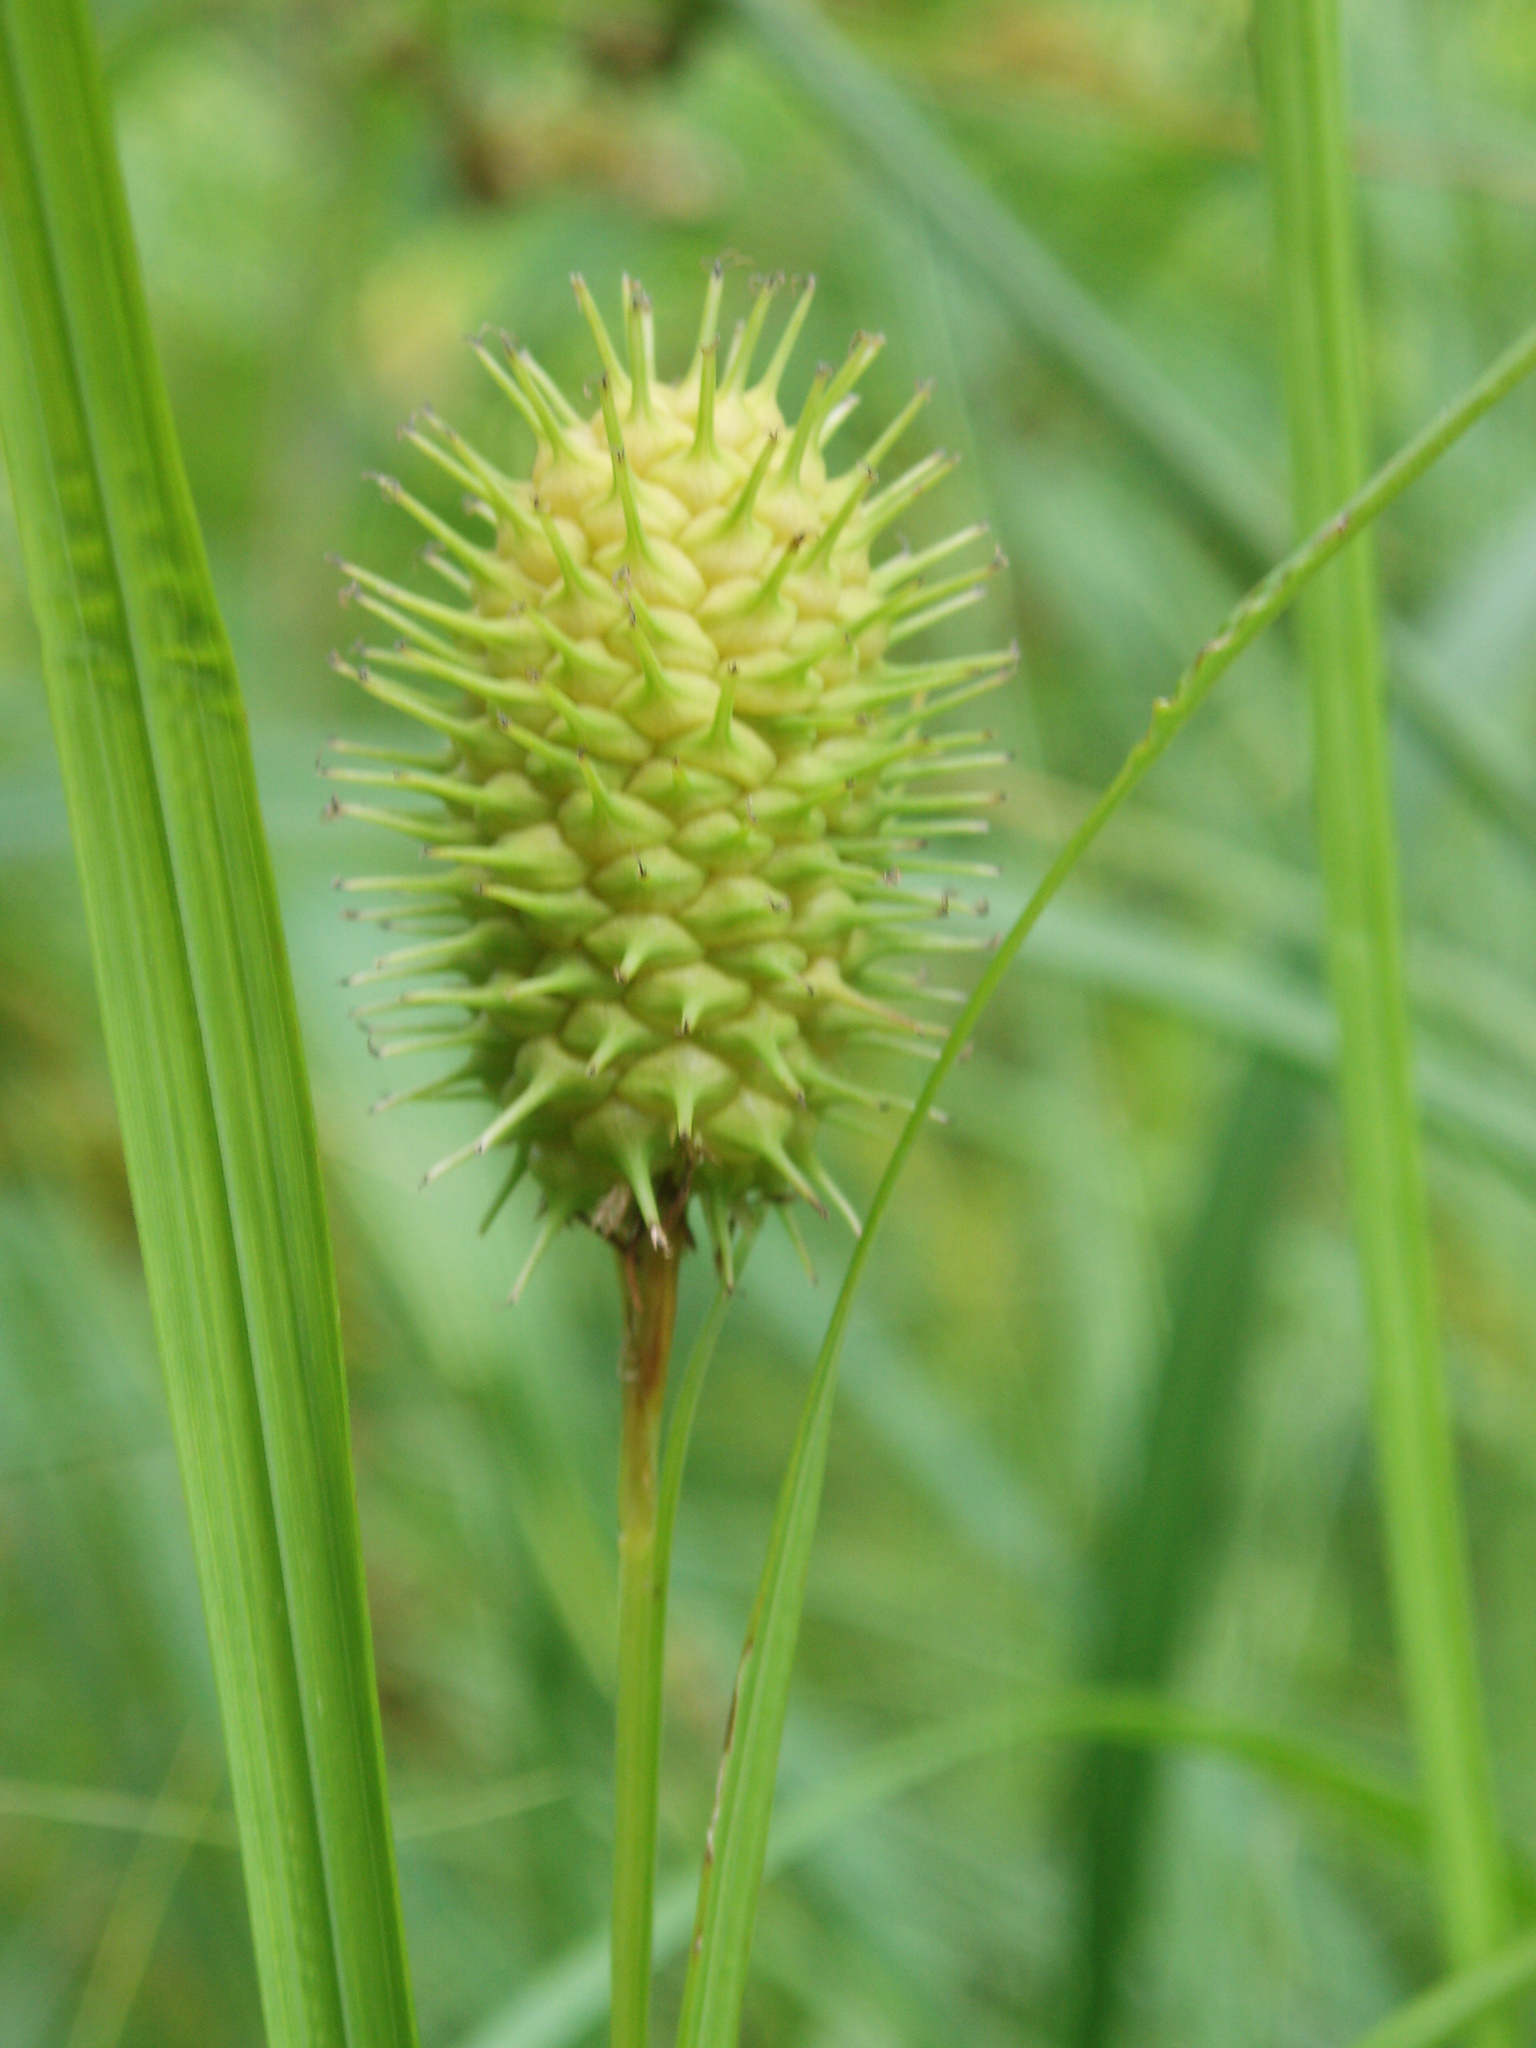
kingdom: Plantae
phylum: Tracheophyta
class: Liliopsida
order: Poales
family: Cyperaceae
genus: Carex
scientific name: Carex squarrosa
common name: Narrow-leaved cattail sedge
